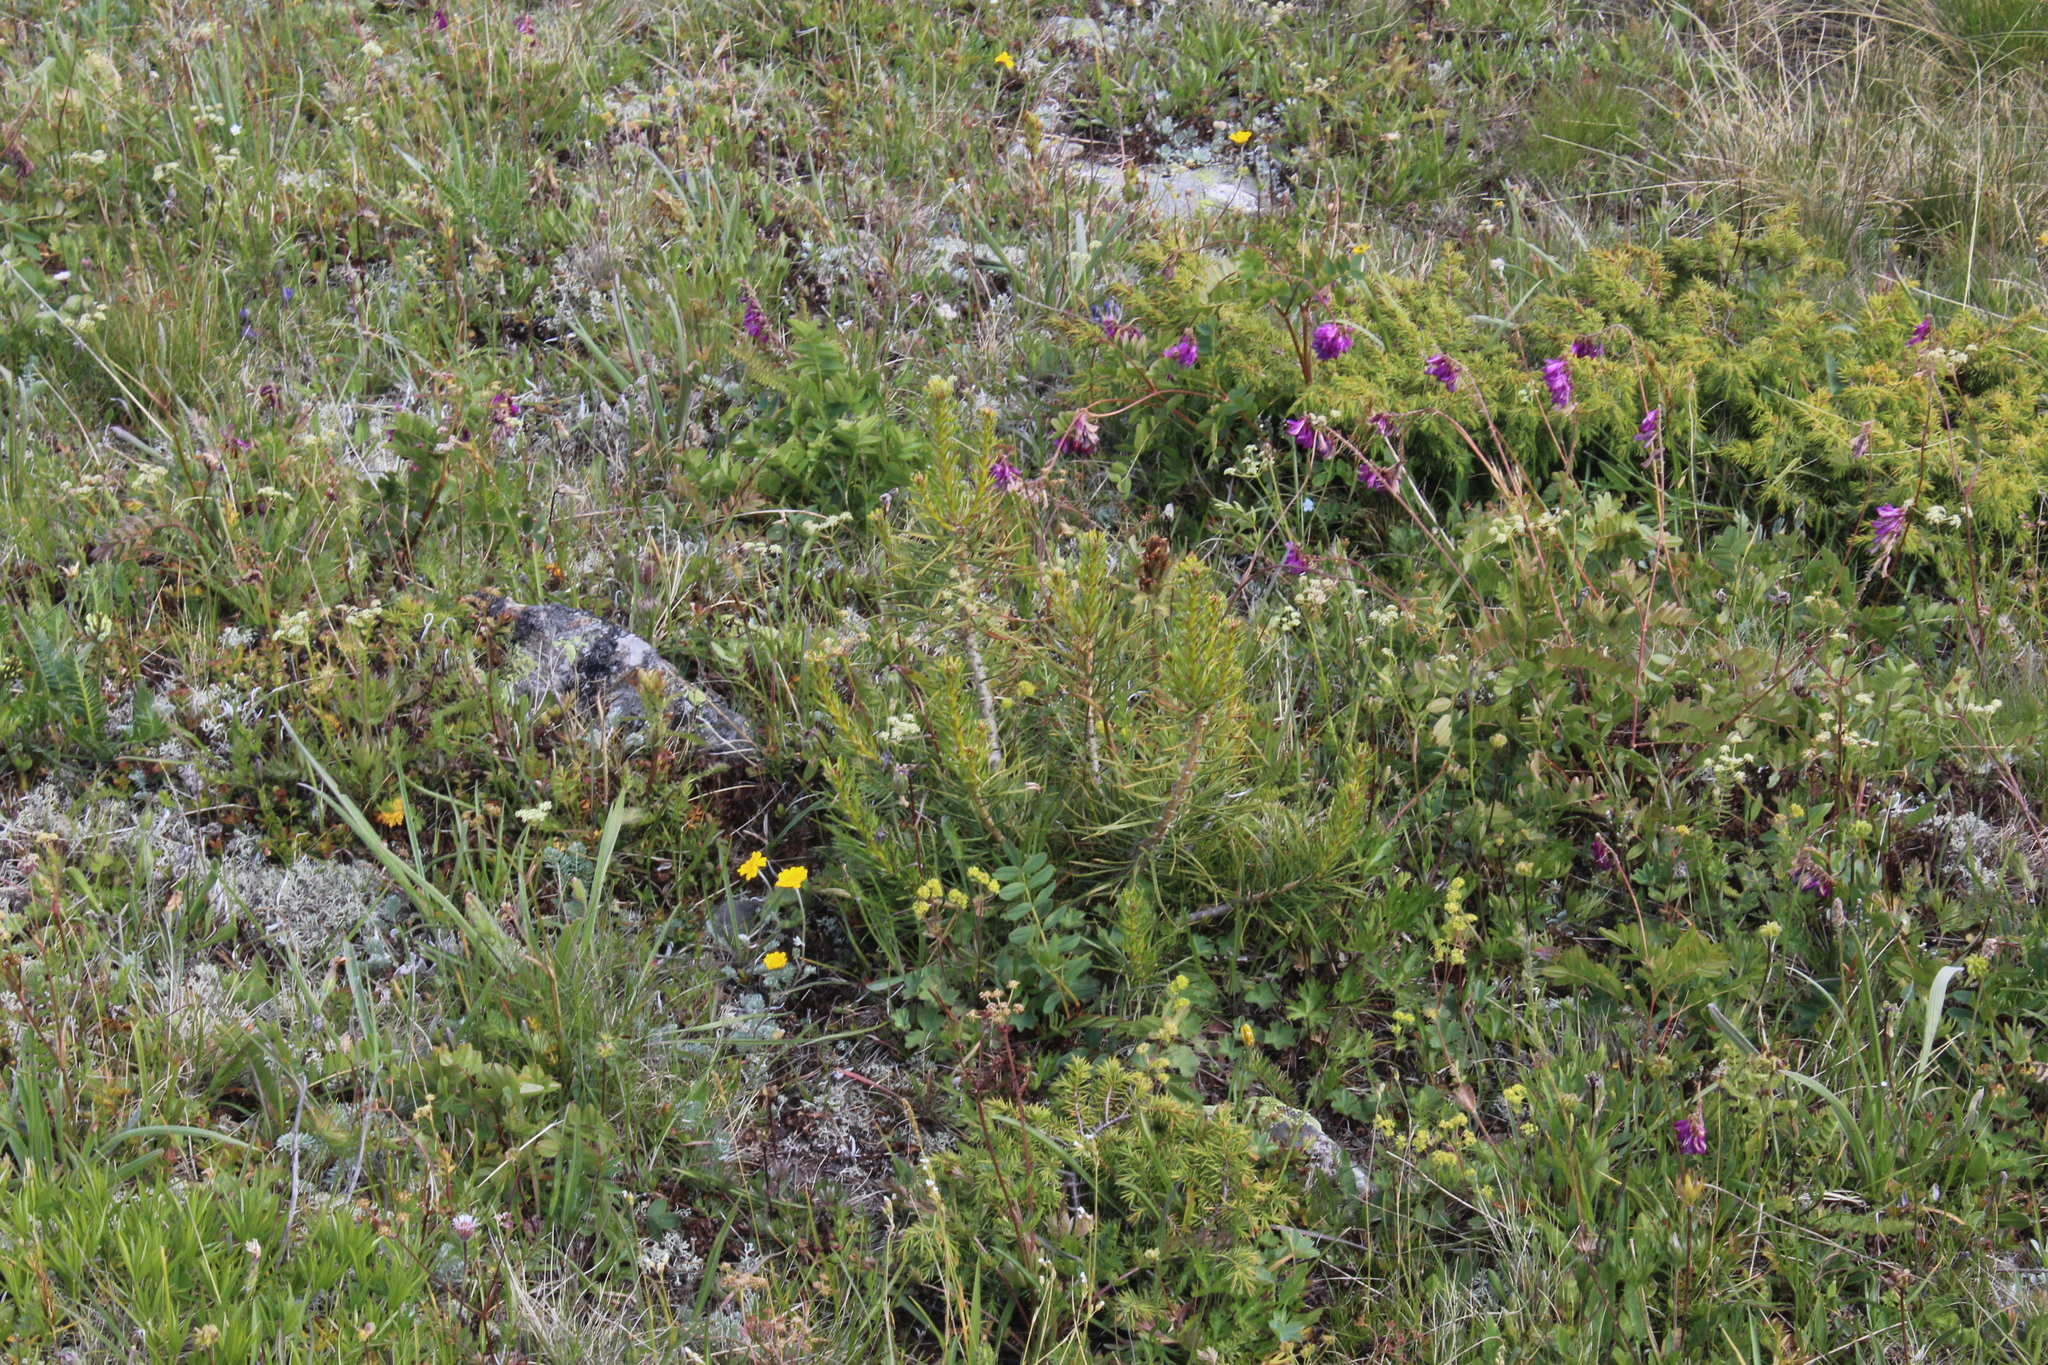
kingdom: Plantae
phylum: Tracheophyta
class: Pinopsida
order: Pinales
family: Pinaceae
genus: Pinus
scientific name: Pinus sylvestris
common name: Scots pine
